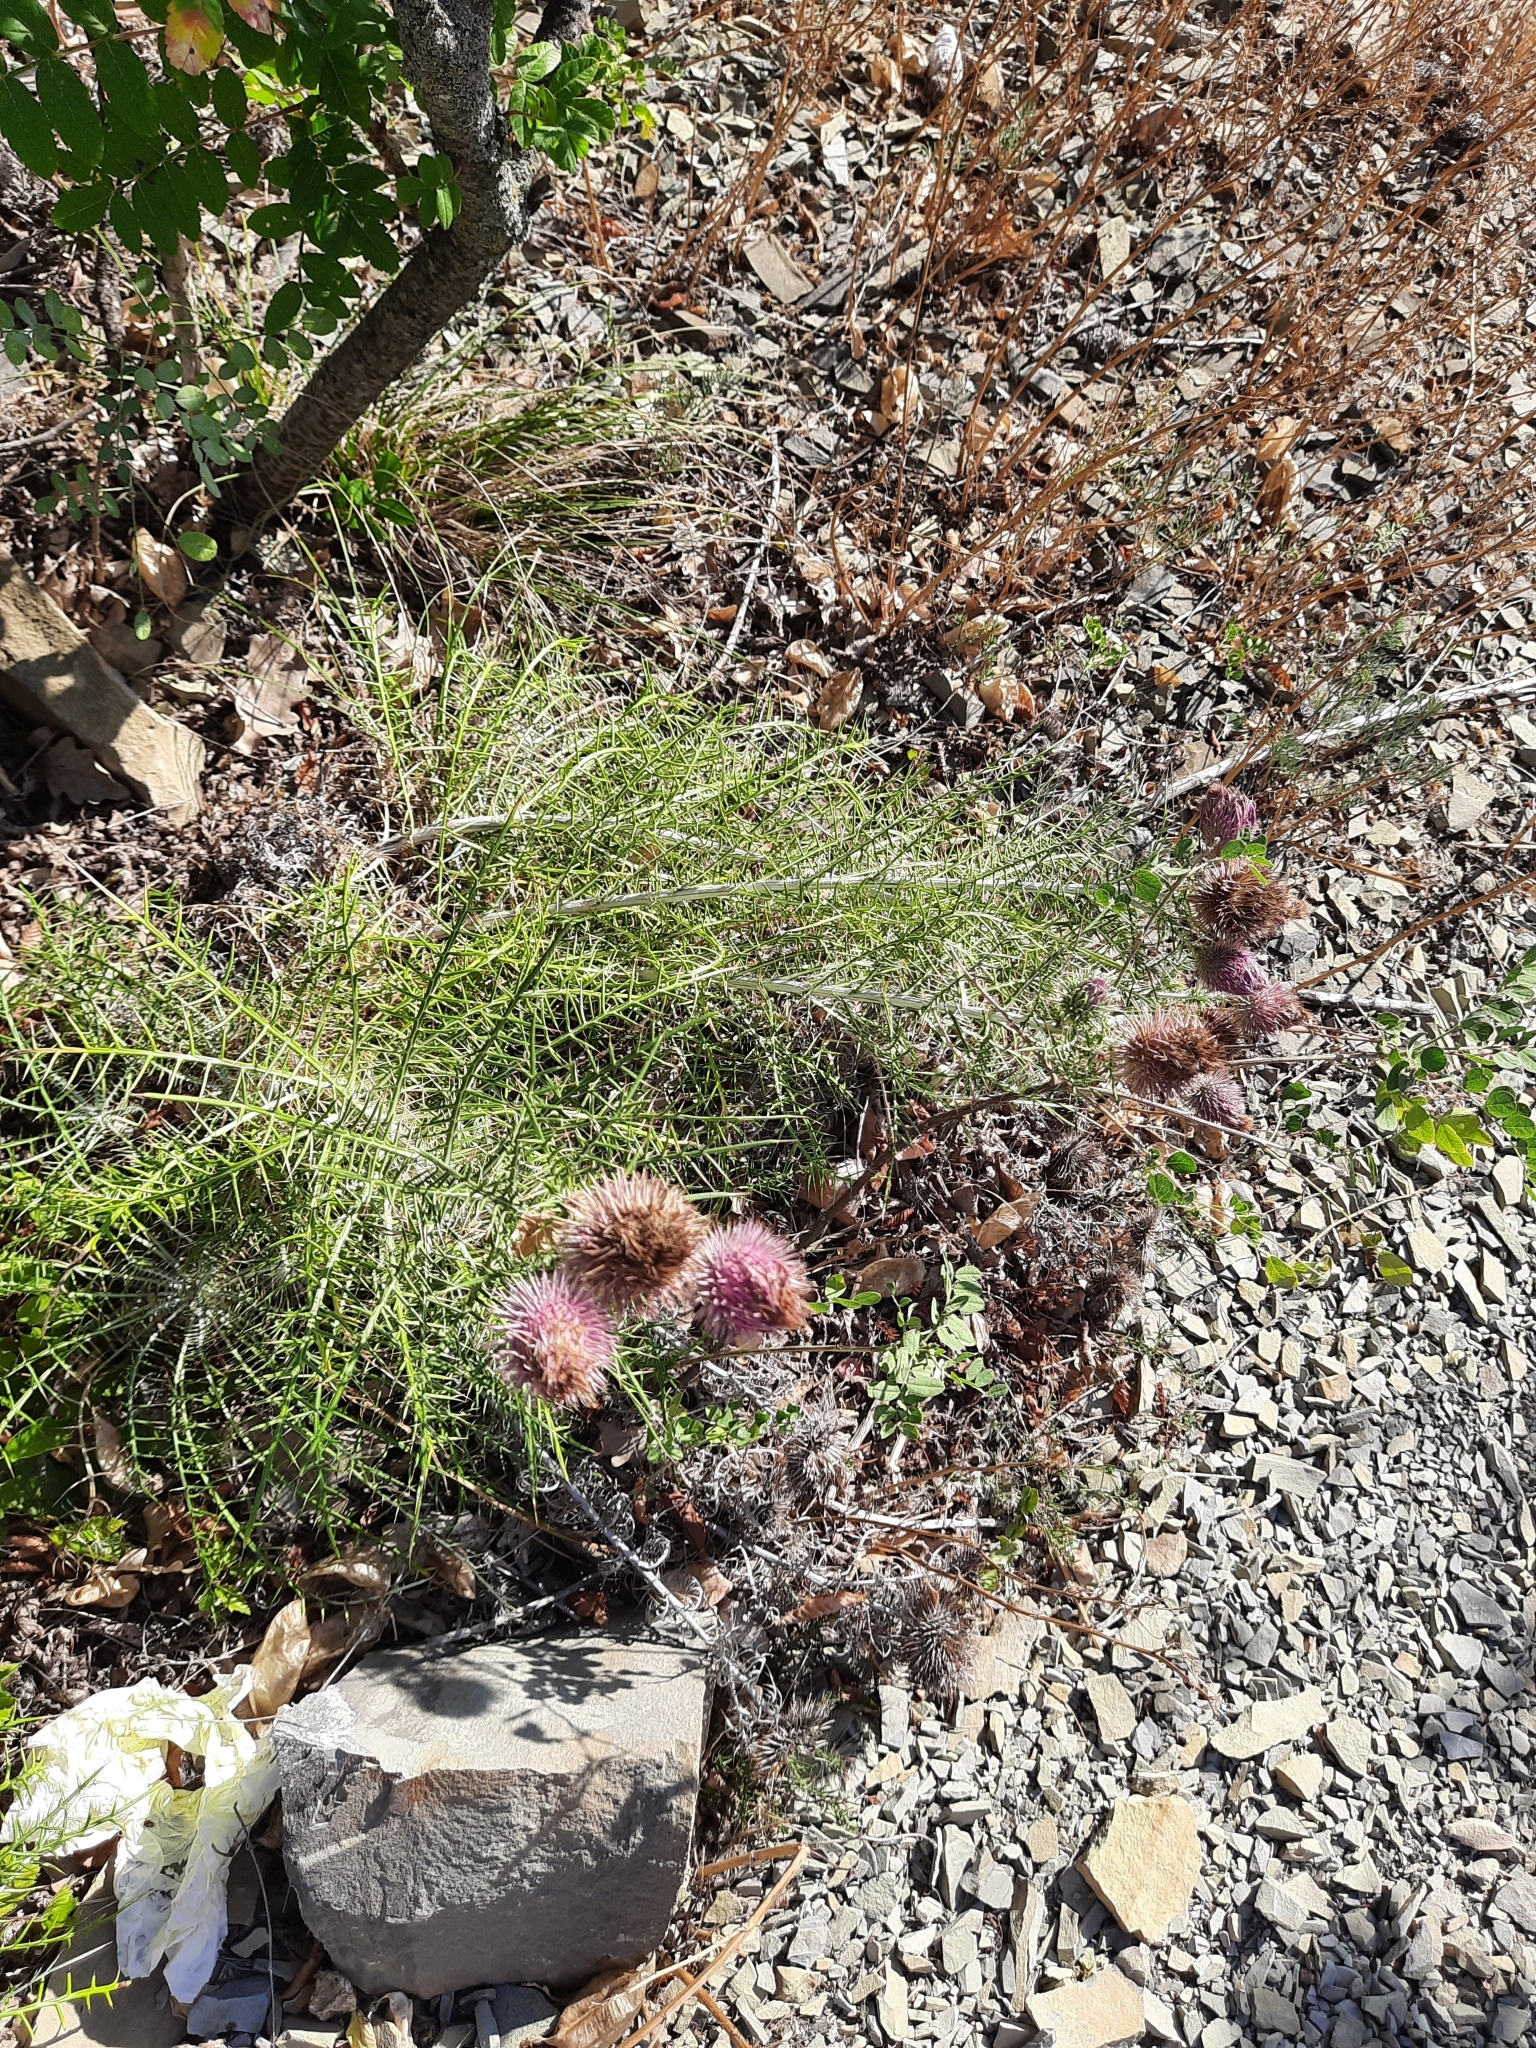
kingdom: Plantae
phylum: Tracheophyta
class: Magnoliopsida
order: Asterales
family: Asteraceae
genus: Ptilostemon
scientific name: Ptilostemon echinocephalus
